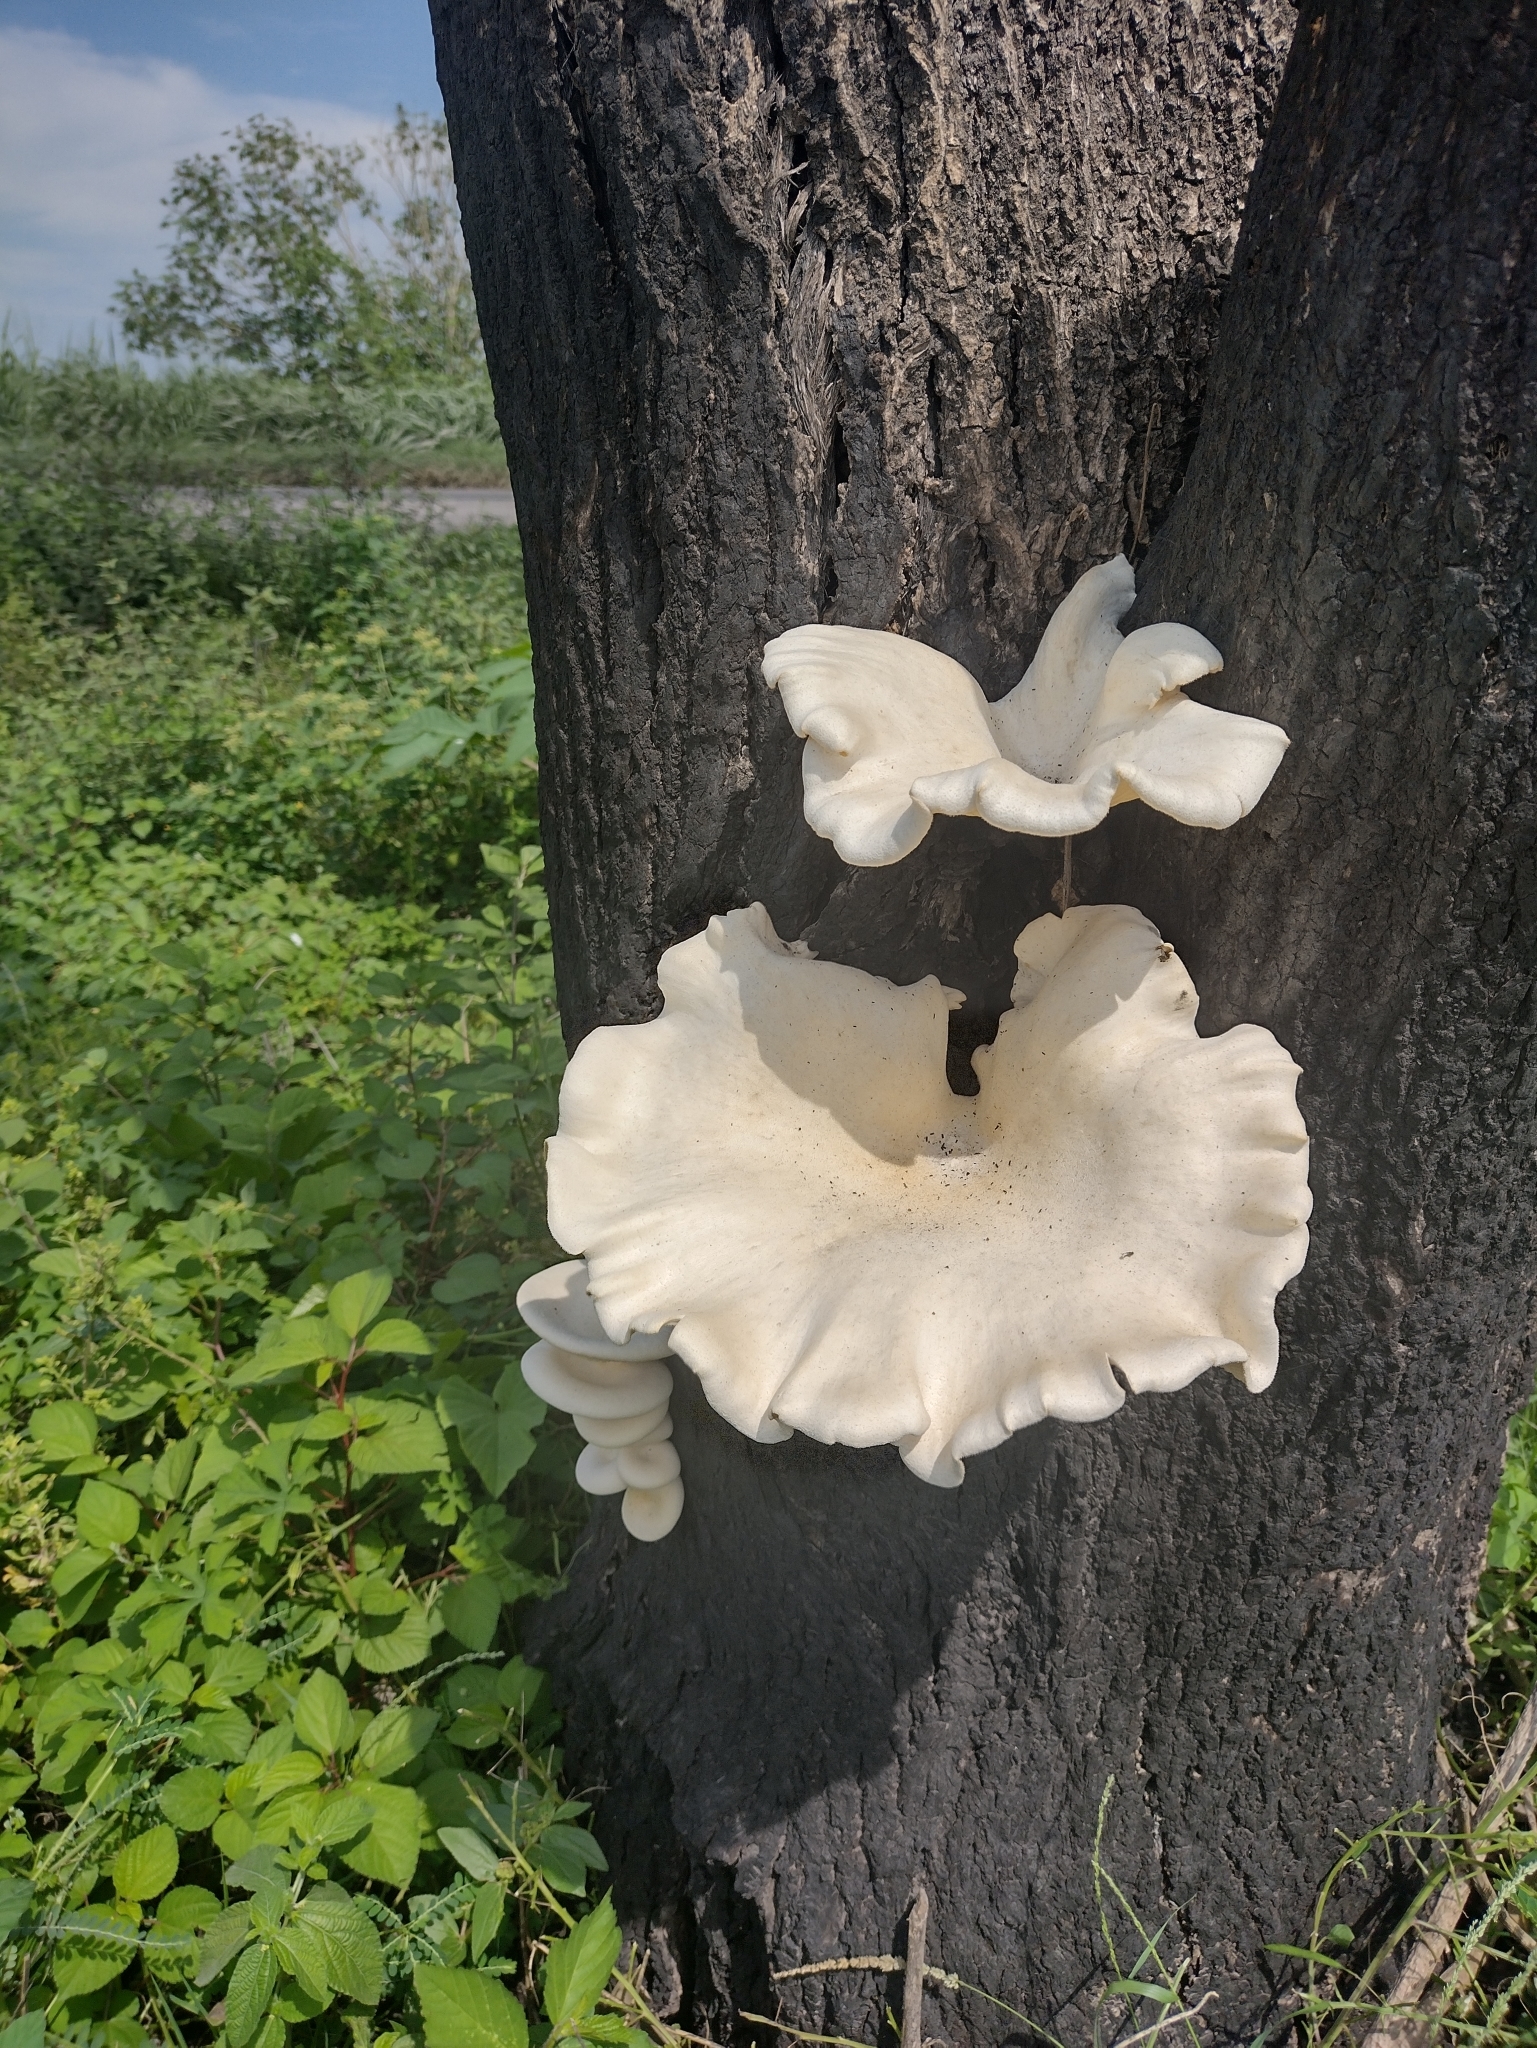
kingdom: Fungi
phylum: Basidiomycota
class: Agaricomycetes
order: Agaricales
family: Pleurotaceae
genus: Pleurotus
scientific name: Pleurotus pulmonarius
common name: Pale oyster
